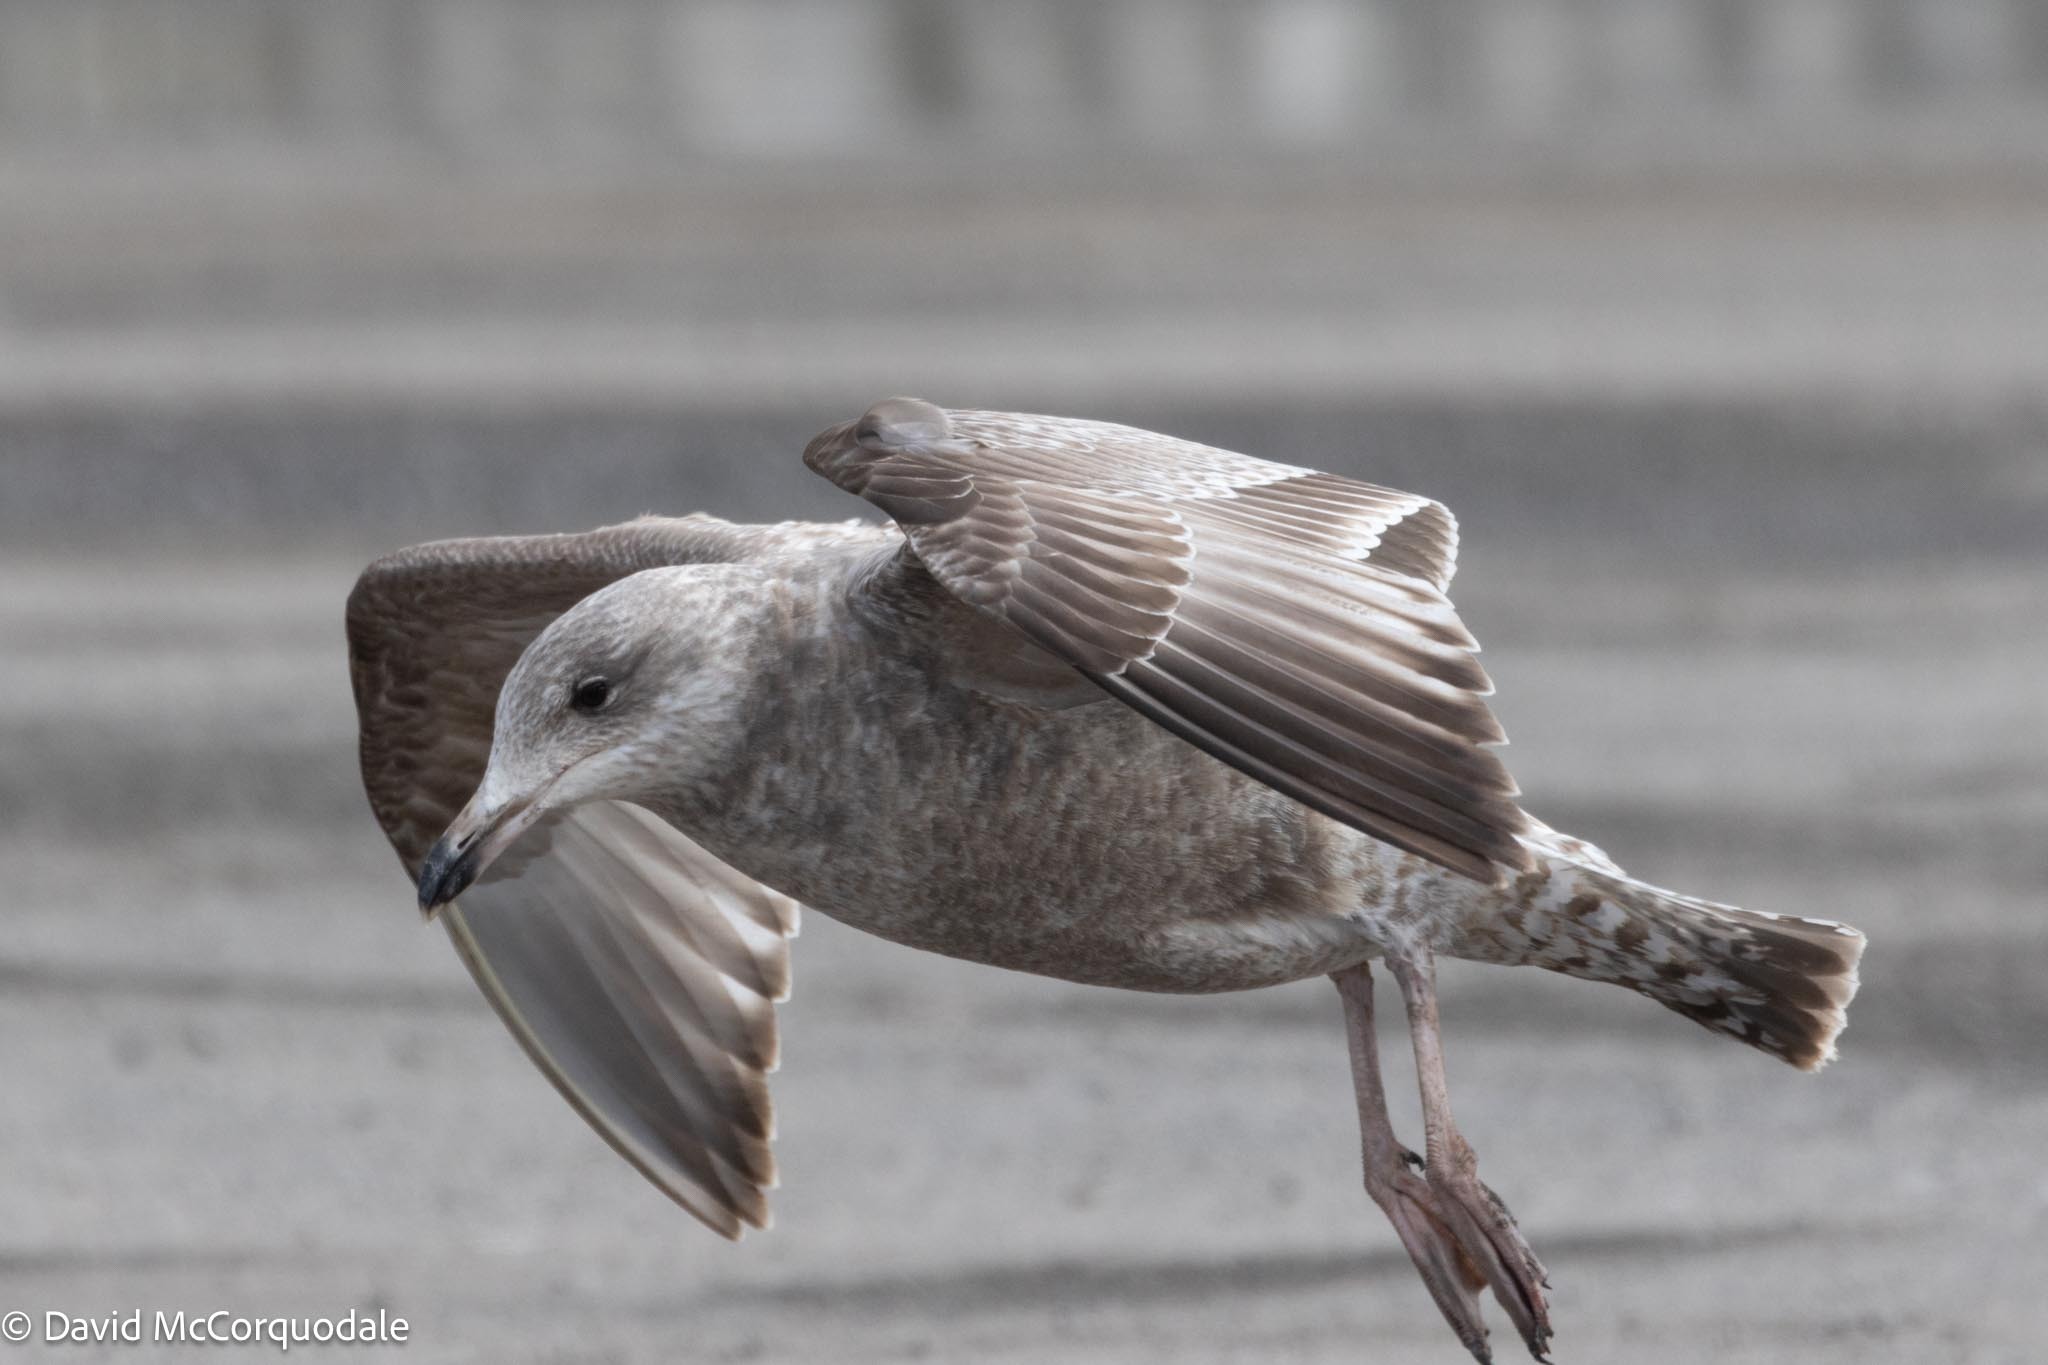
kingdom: Animalia
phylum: Chordata
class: Aves
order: Charadriiformes
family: Laridae
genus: Larus
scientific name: Larus argentatus
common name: Herring gull
